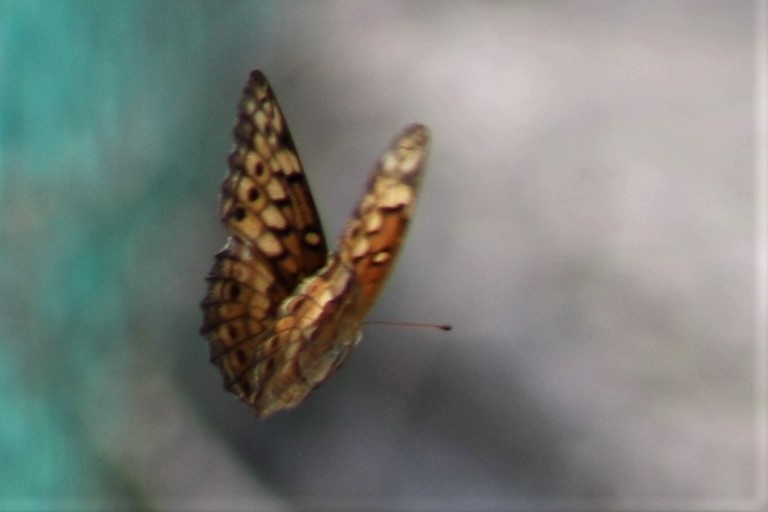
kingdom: Animalia
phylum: Arthropoda
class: Insecta
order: Lepidoptera
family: Nymphalidae
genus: Euptoieta
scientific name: Euptoieta claudia
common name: Variegated fritillary
